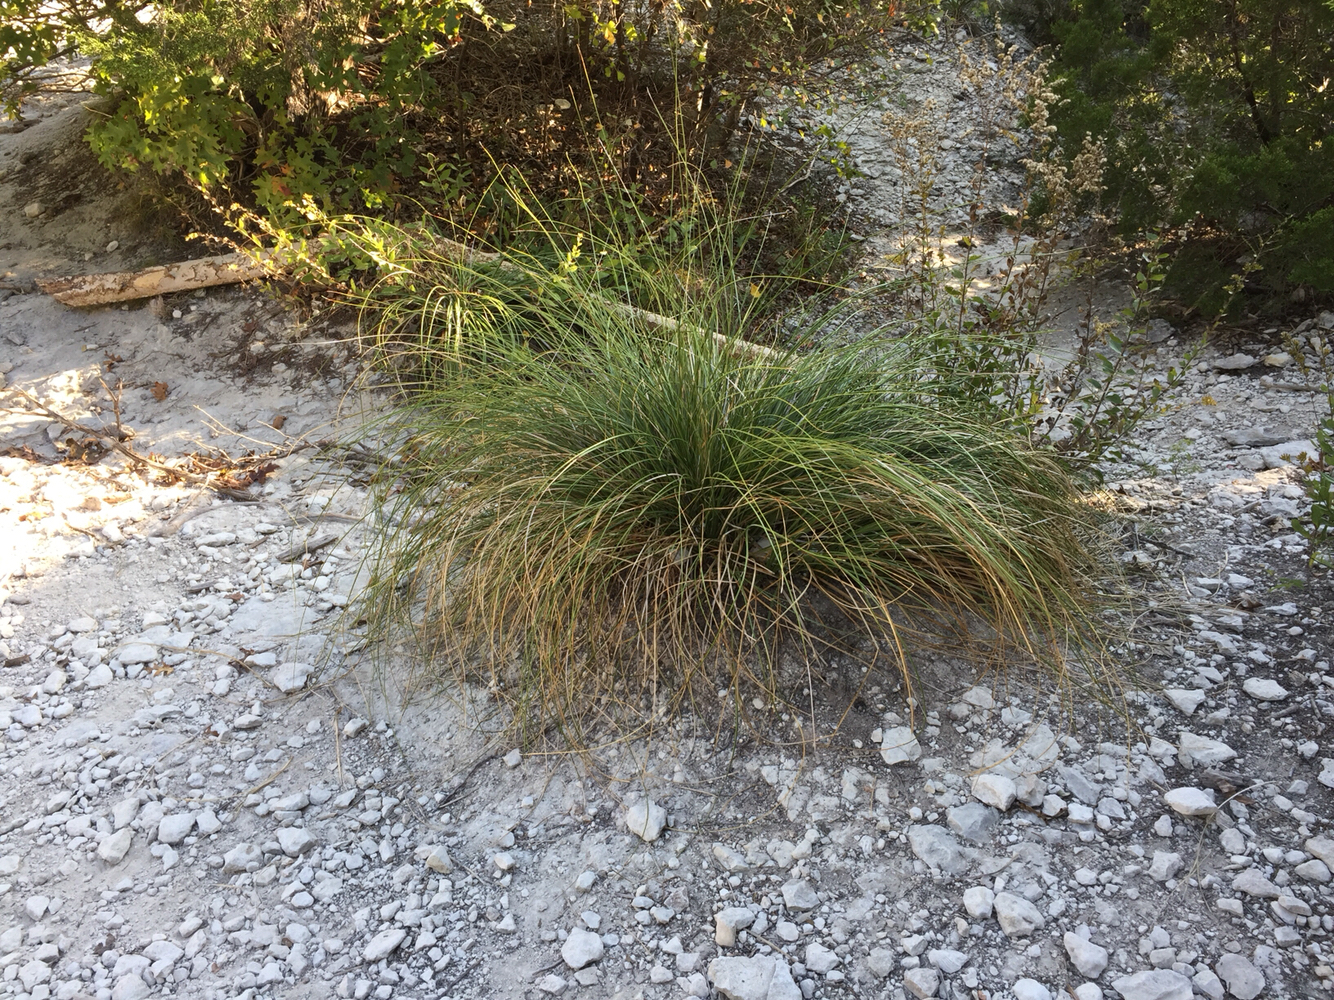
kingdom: Plantae
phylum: Tracheophyta
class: Liliopsida
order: Asparagales
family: Asparagaceae
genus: Nolina
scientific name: Nolina texana
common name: Texas sacahuiste
